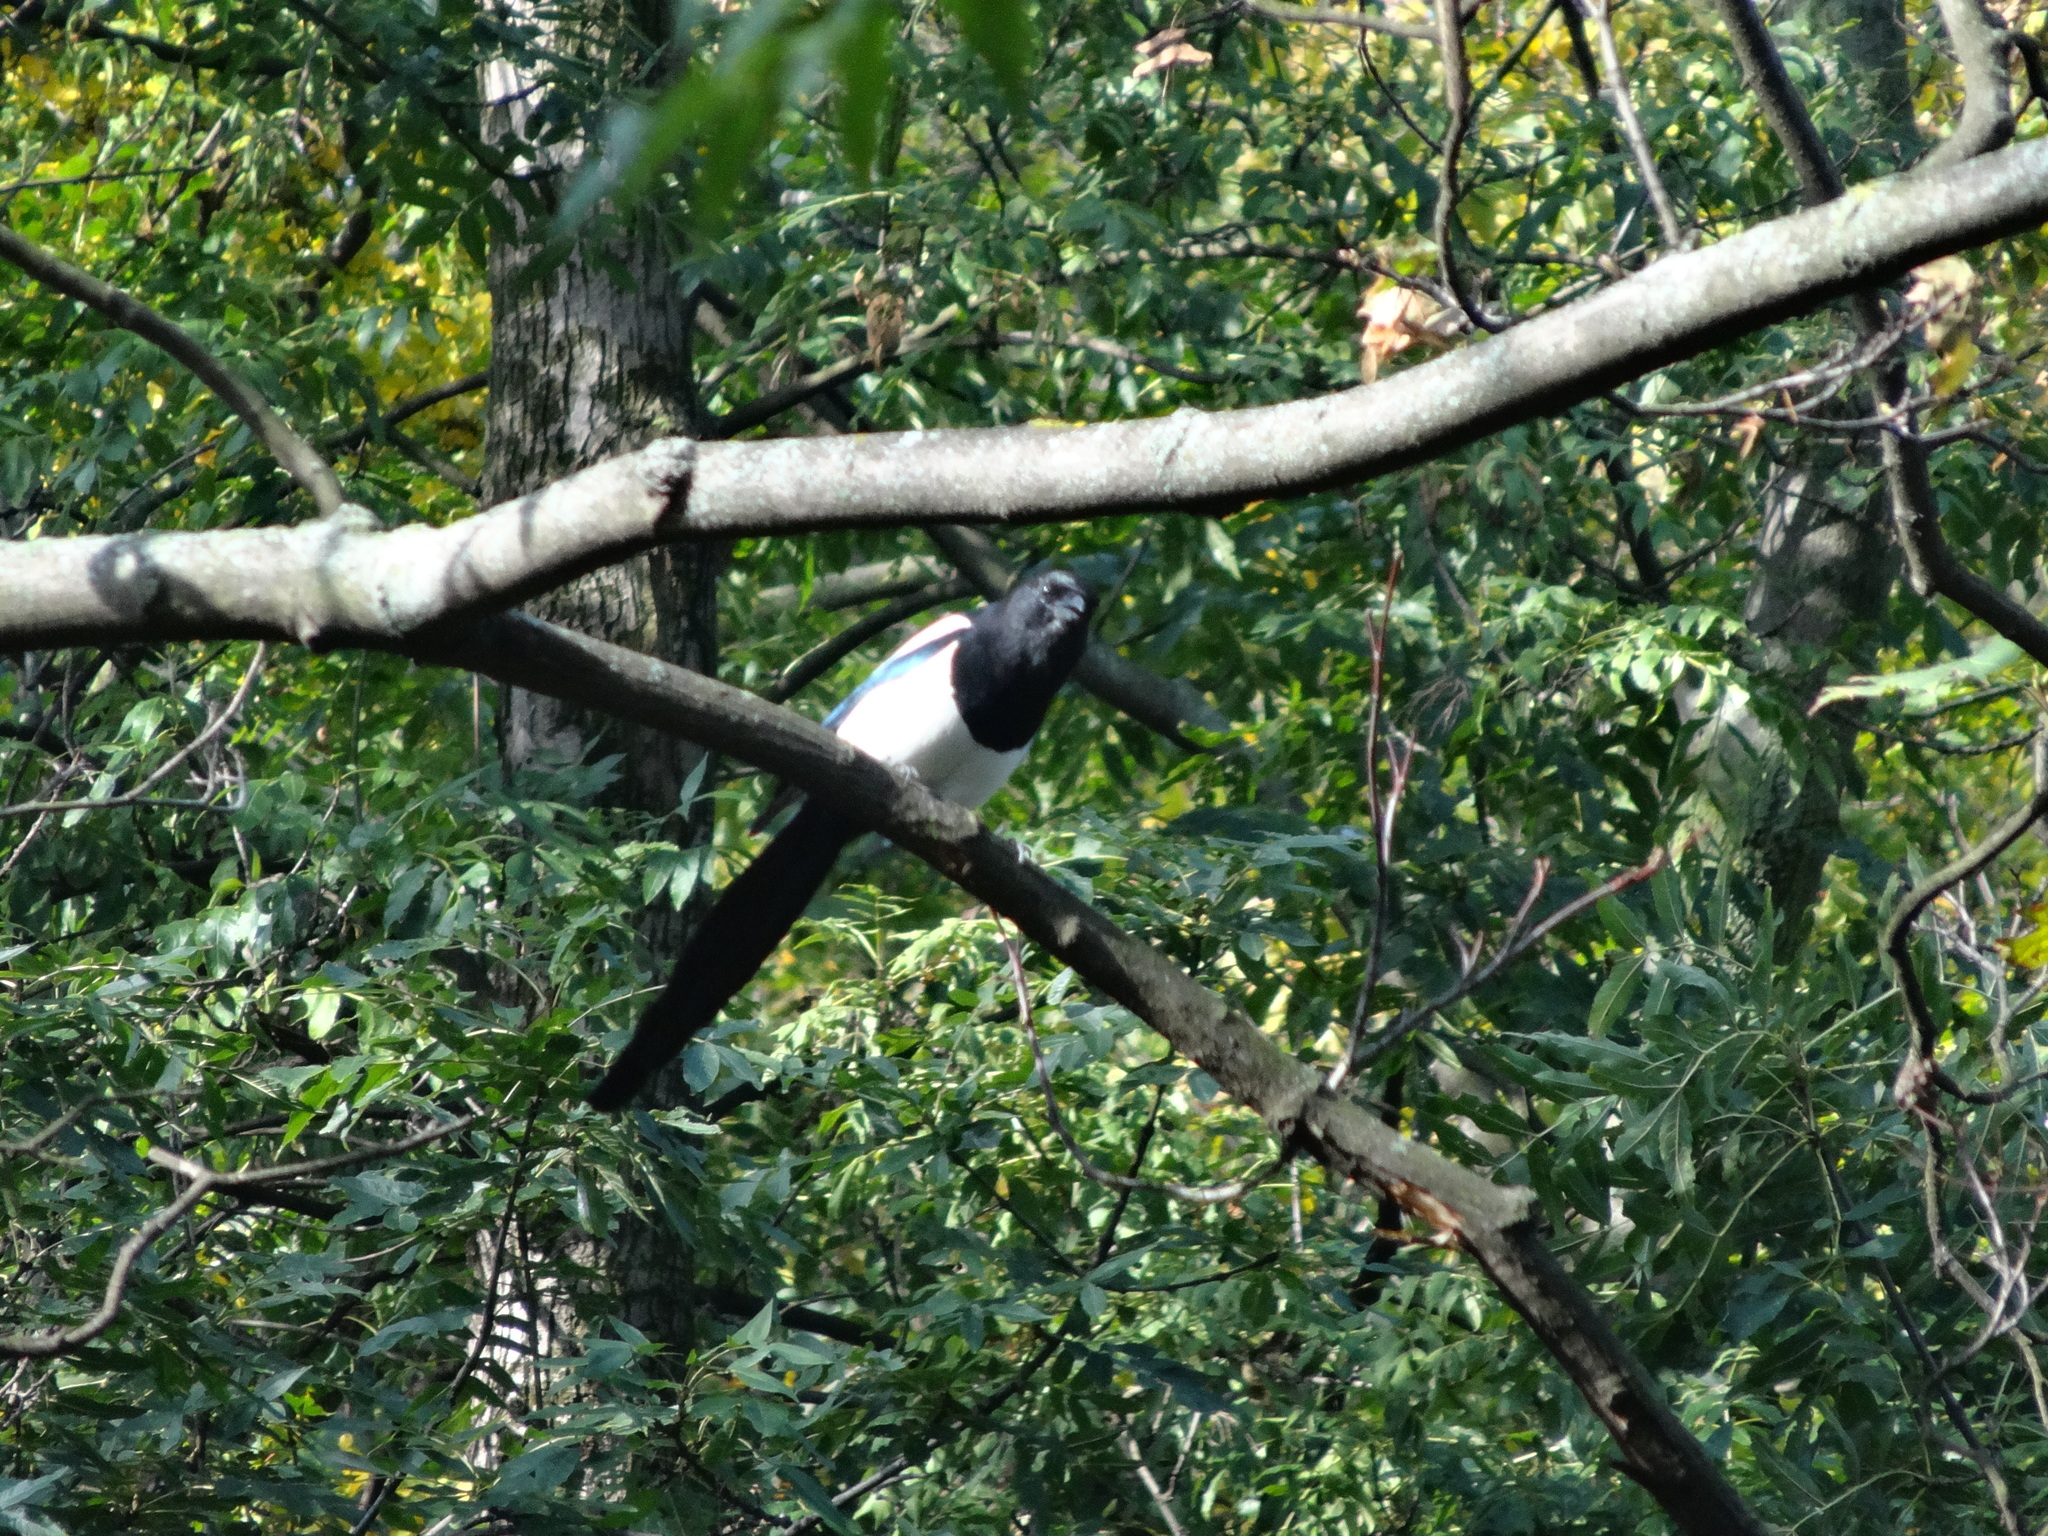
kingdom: Animalia
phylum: Chordata
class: Aves
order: Passeriformes
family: Corvidae
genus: Pica
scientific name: Pica pica
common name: Eurasian magpie
